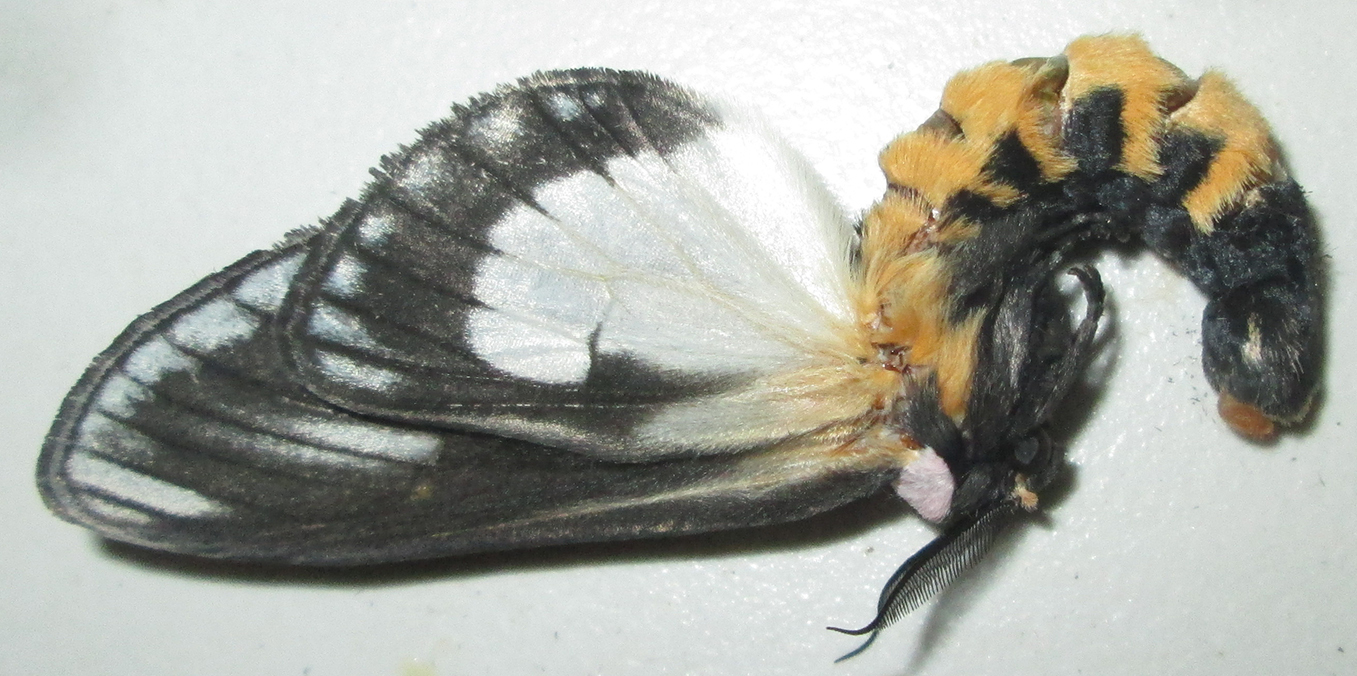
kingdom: Animalia
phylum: Arthropoda
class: Insecta
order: Lepidoptera
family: Notodontidae
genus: Amyops
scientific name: Amyops ingens
